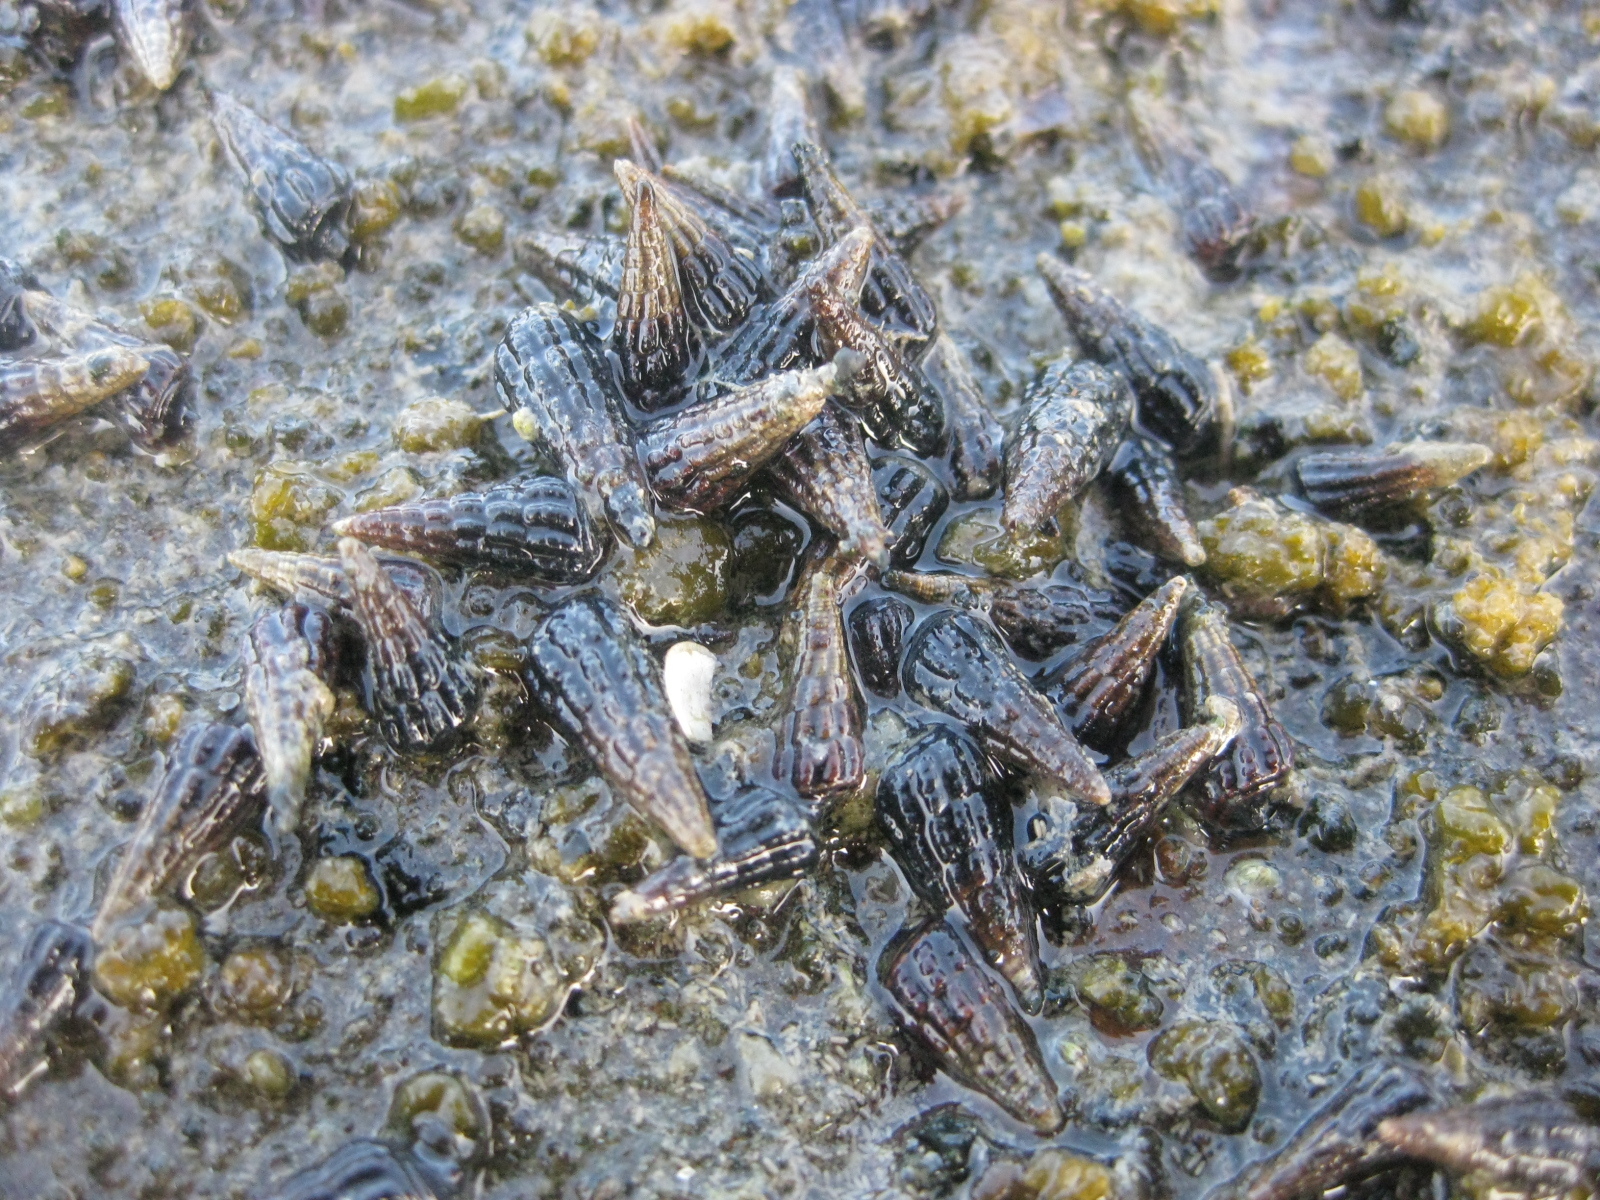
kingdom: Animalia
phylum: Mollusca
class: Gastropoda
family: Batillariidae
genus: Zeacumantus
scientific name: Zeacumantus subcarinatus
